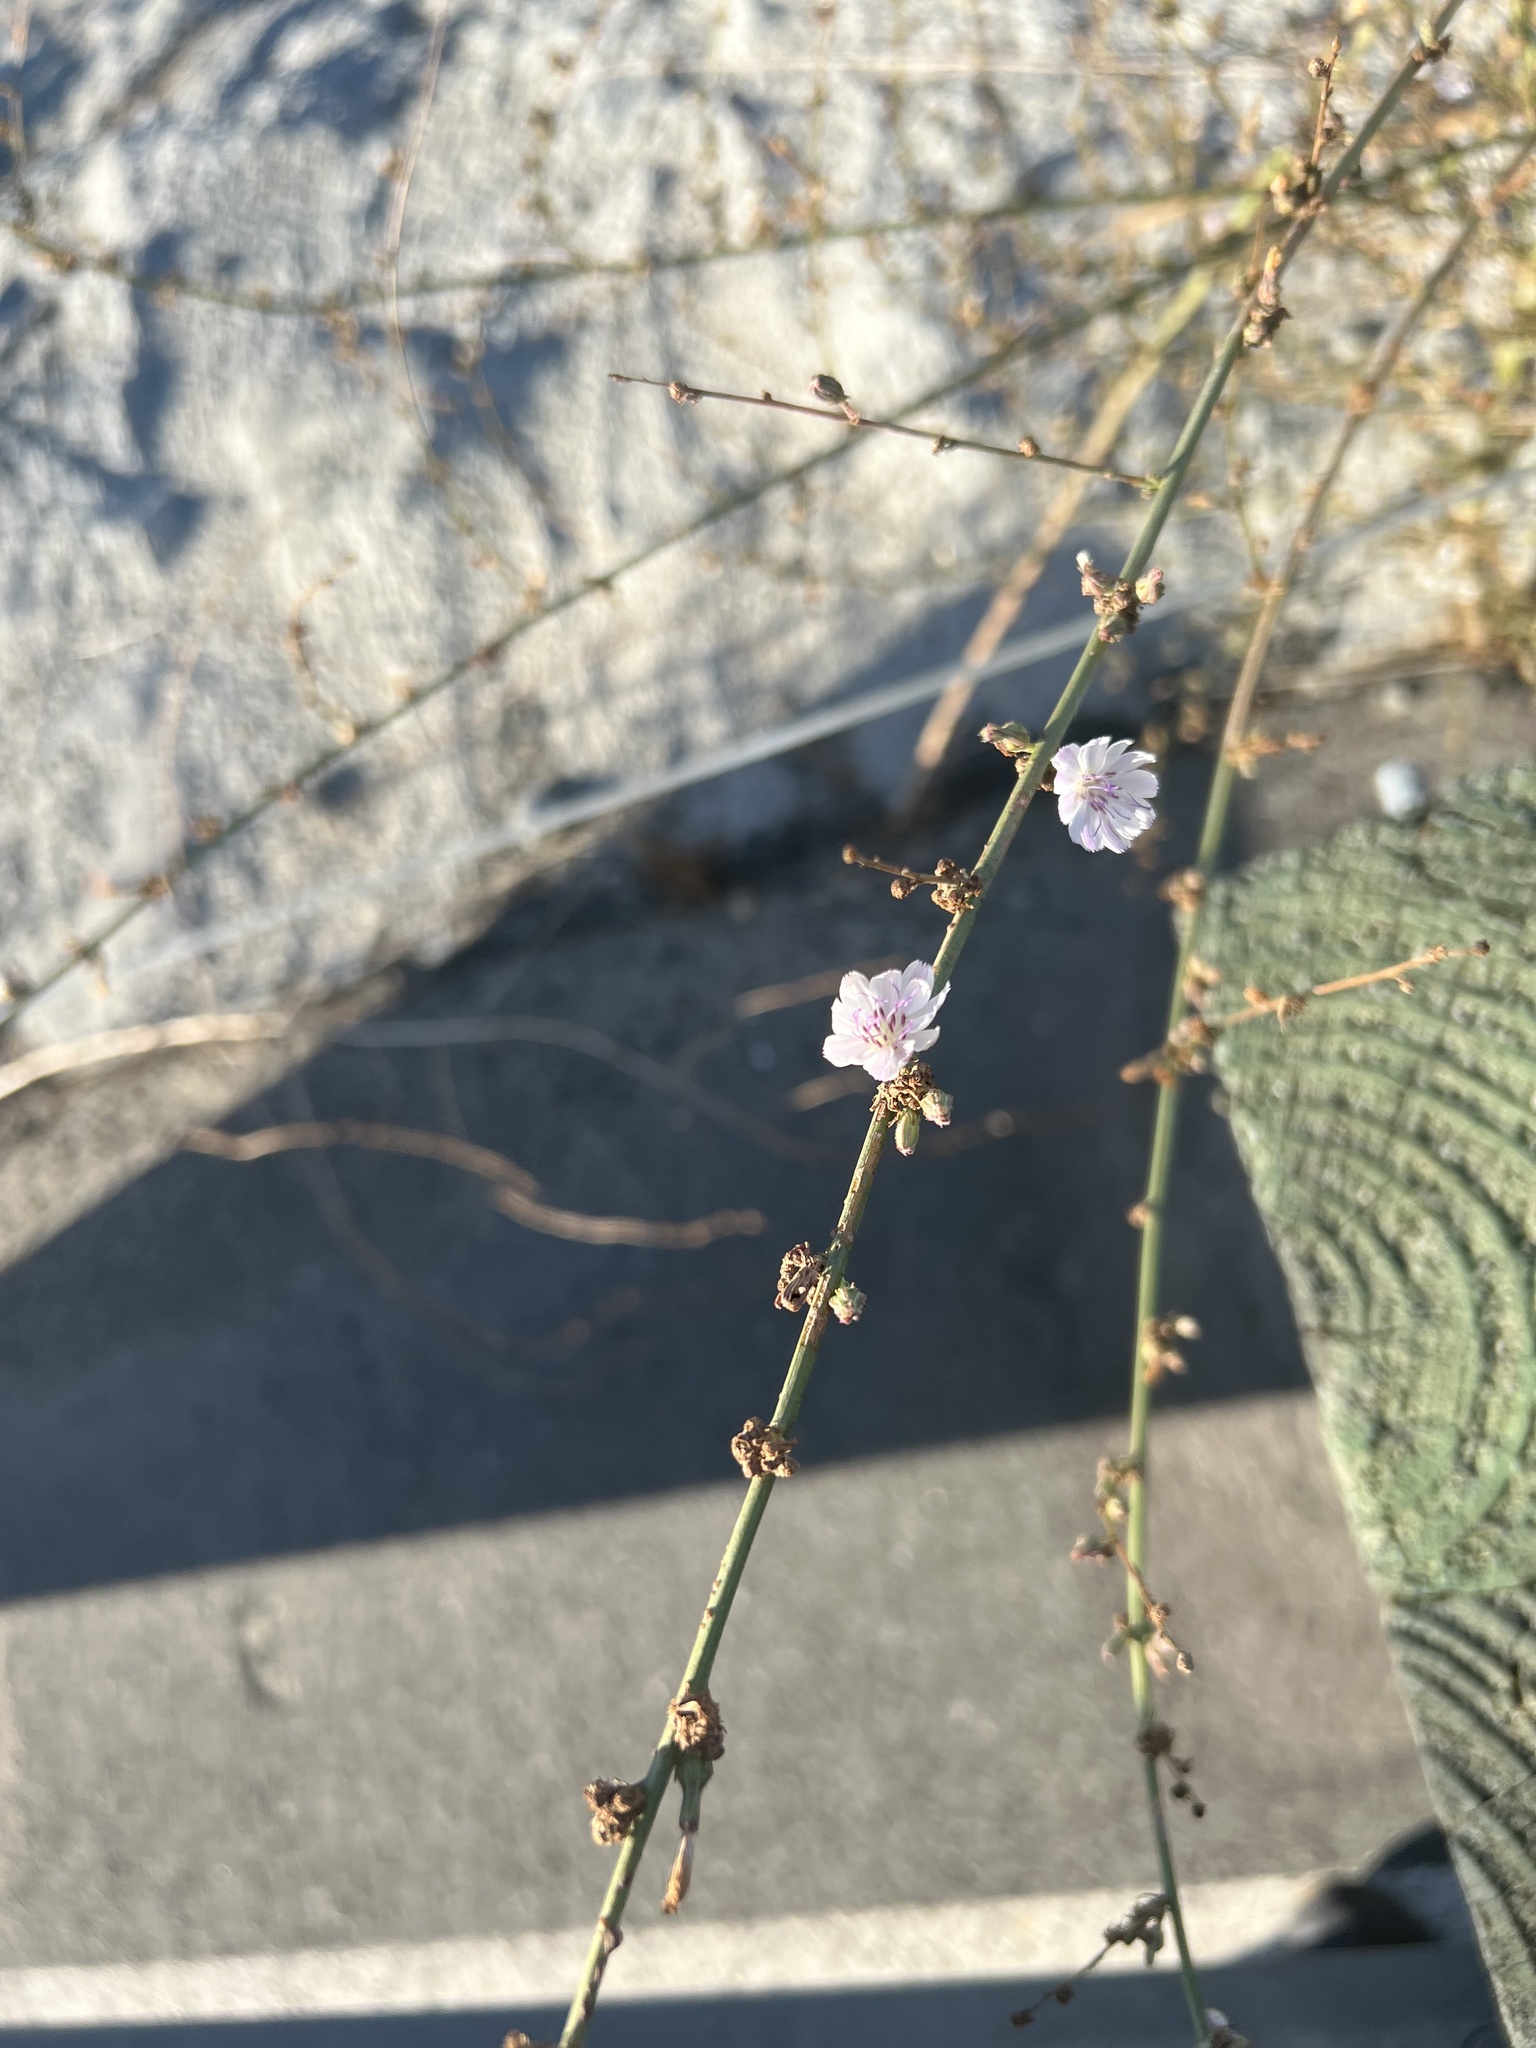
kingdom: Plantae
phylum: Tracheophyta
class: Magnoliopsida
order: Asterales
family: Asteraceae
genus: Stephanomeria
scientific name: Stephanomeria diegensis
